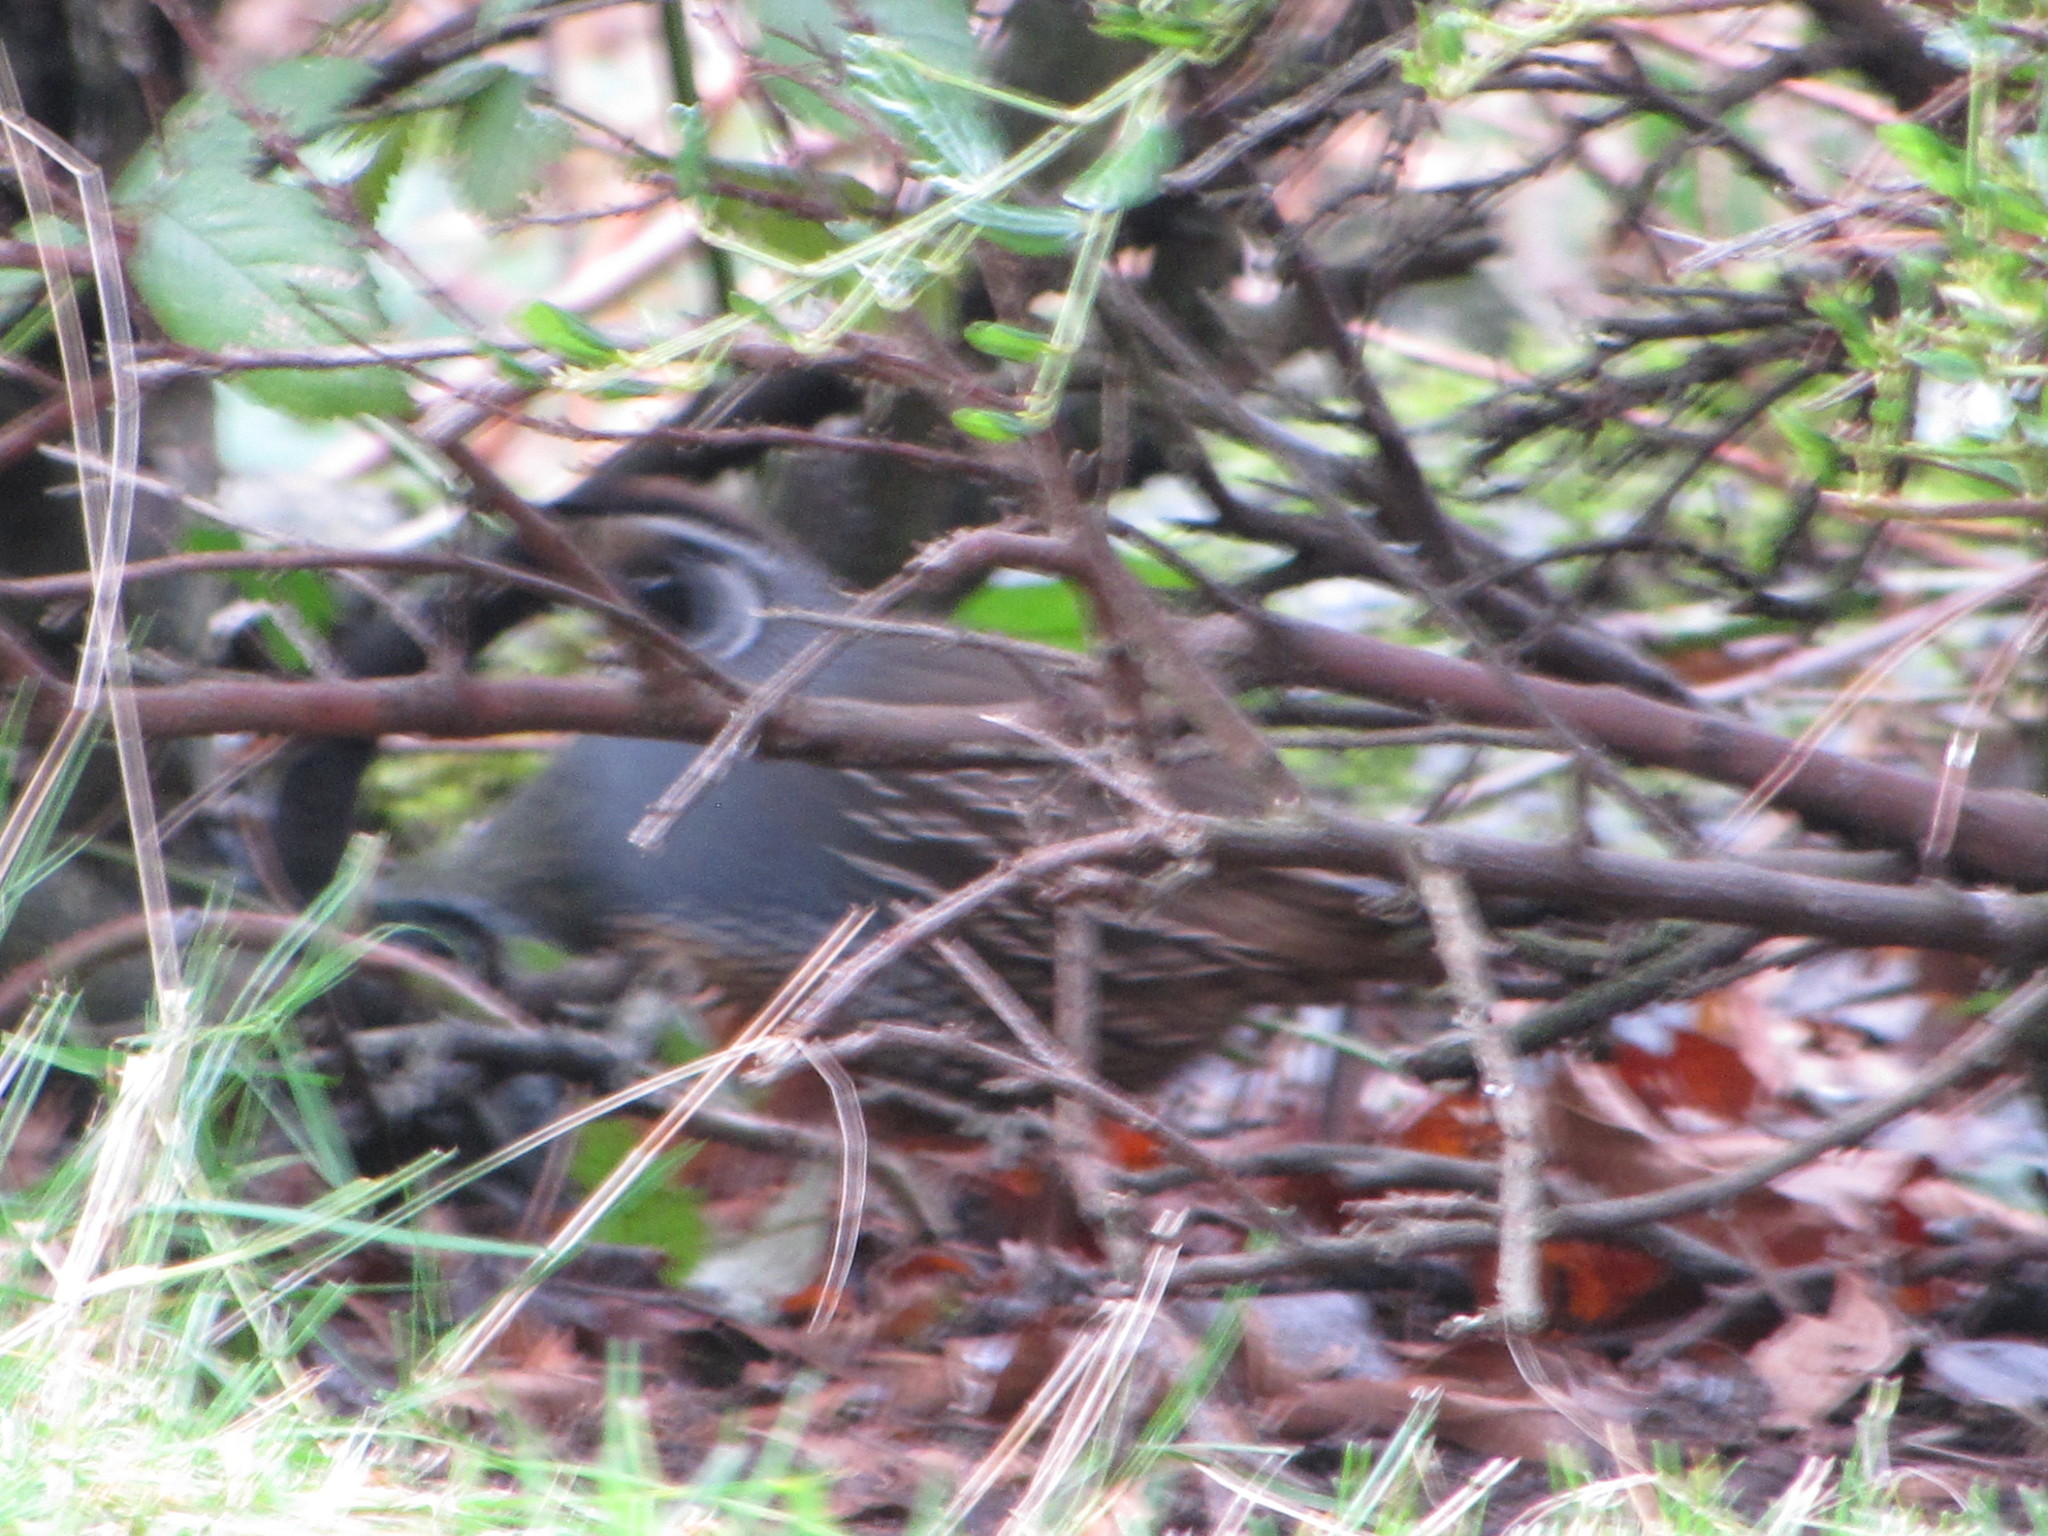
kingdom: Animalia
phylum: Chordata
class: Aves
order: Galliformes
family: Odontophoridae
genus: Callipepla
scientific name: Callipepla californica
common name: California quail
